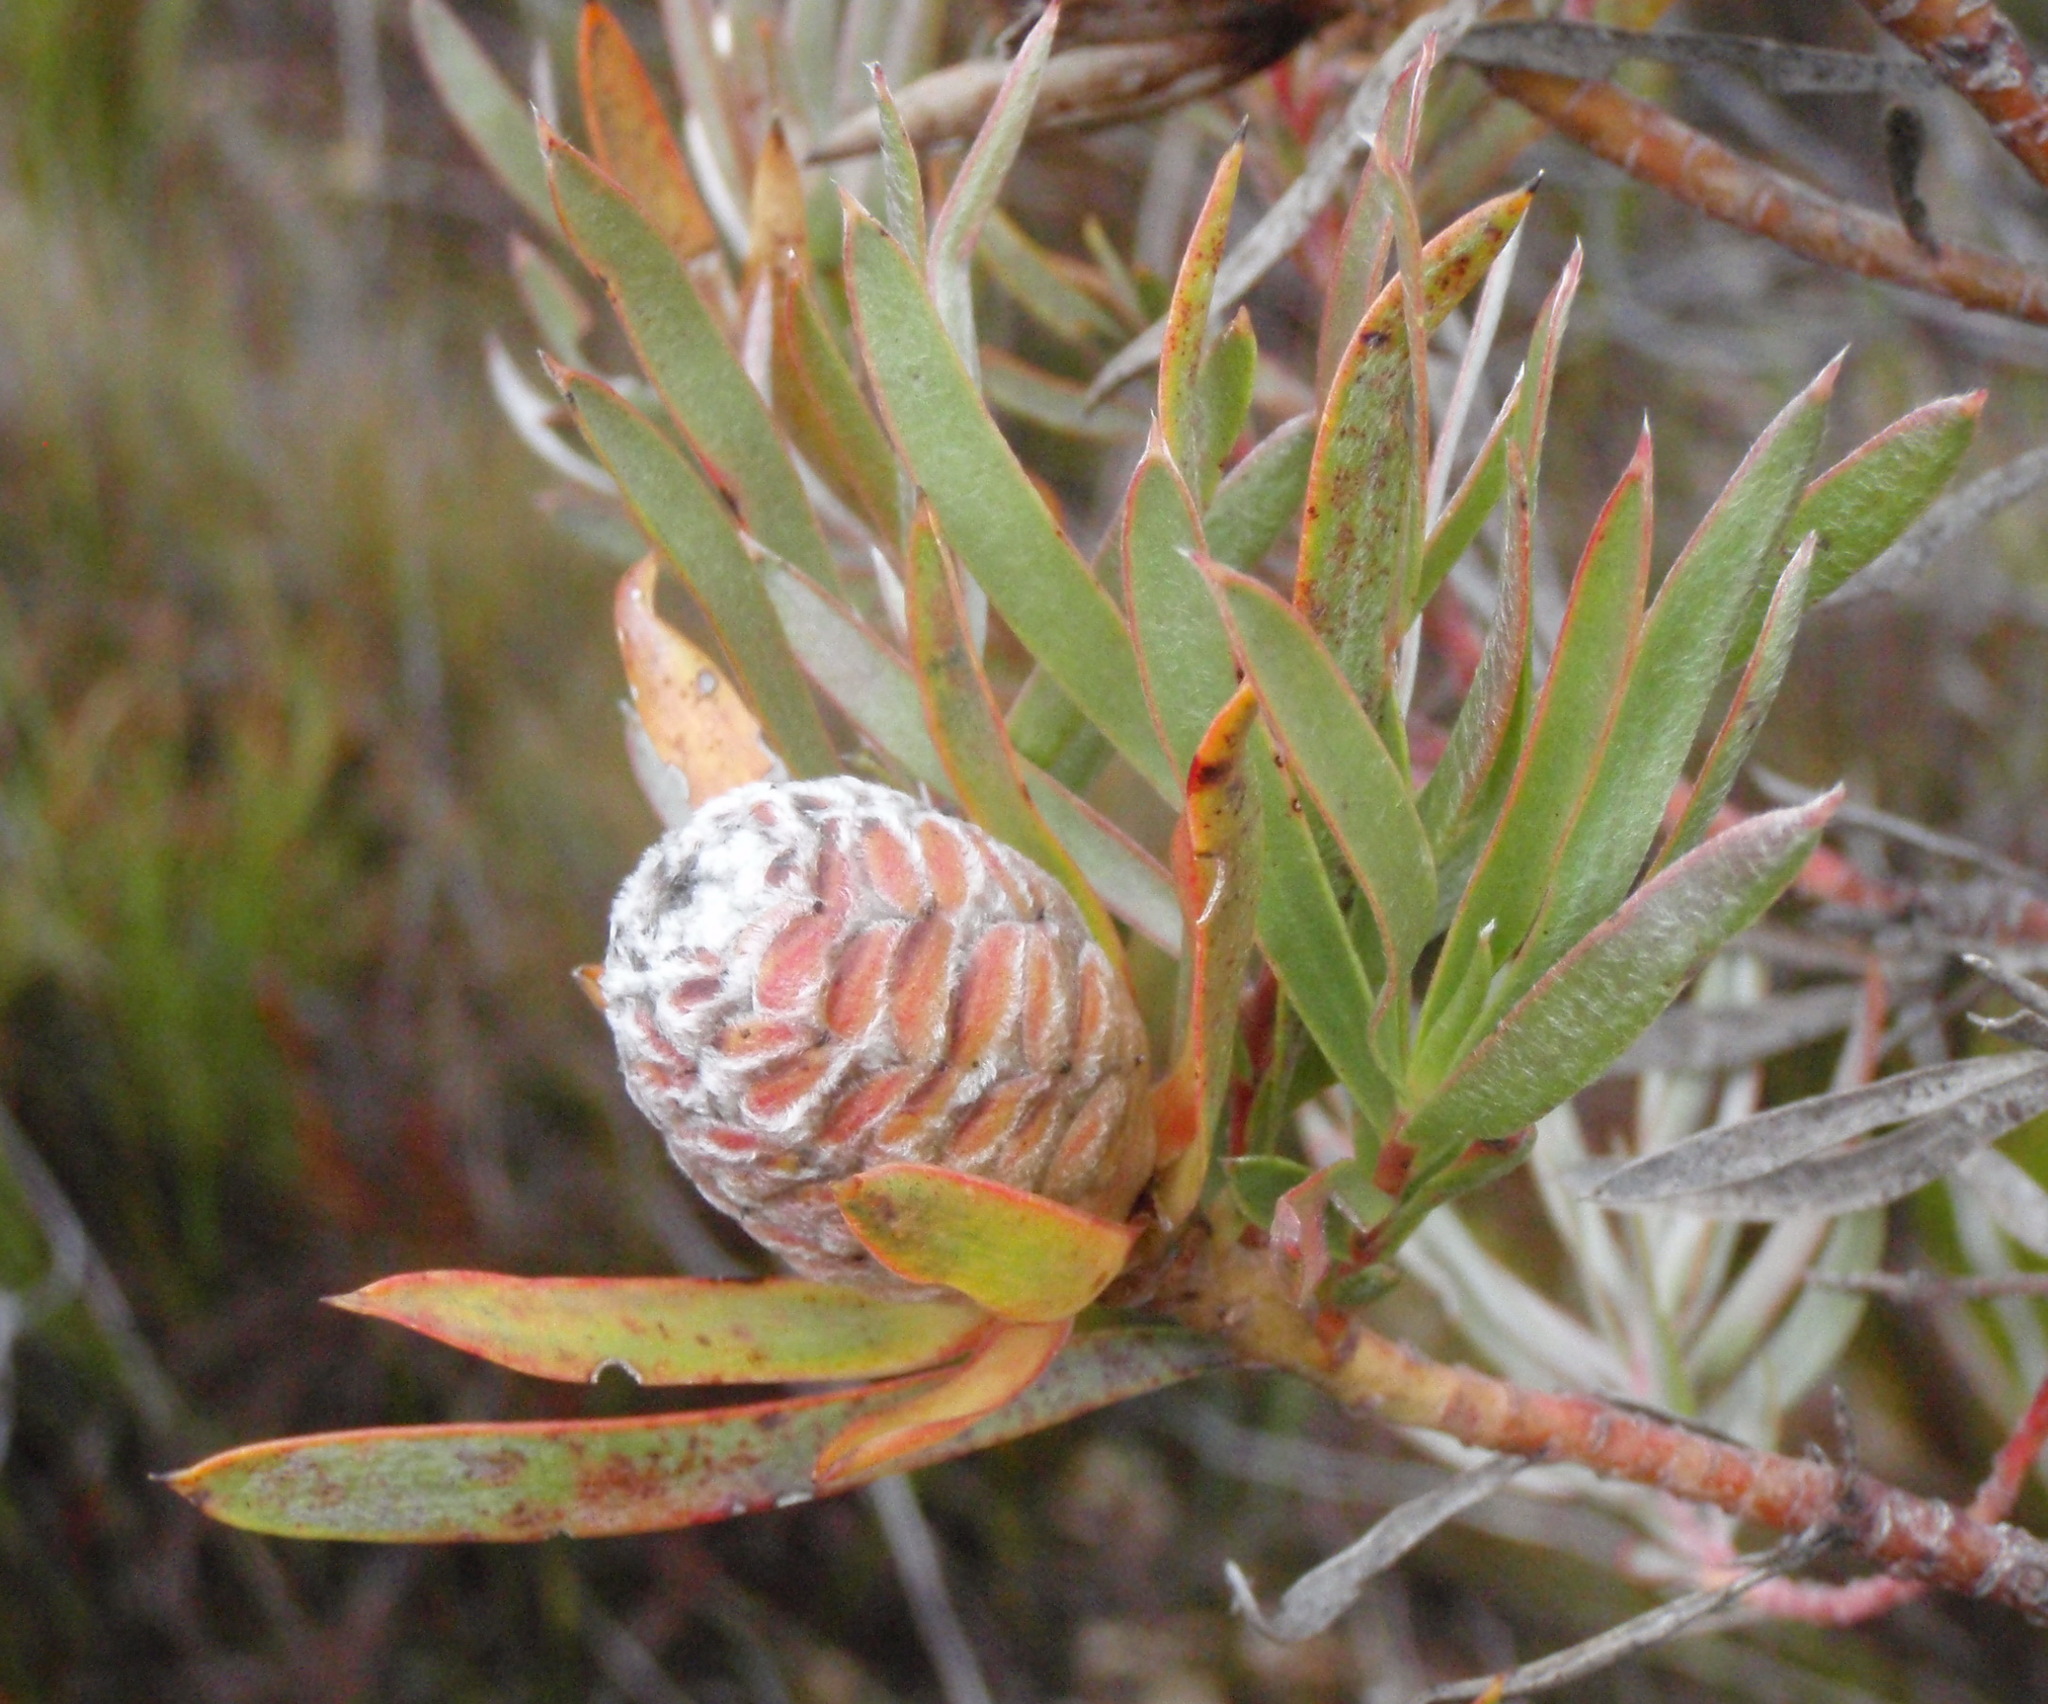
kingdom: Plantae
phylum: Tracheophyta
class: Magnoliopsida
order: Proteales
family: Proteaceae
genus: Leucadendron
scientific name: Leucadendron xanthoconus
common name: Sickle-leaf conebush
